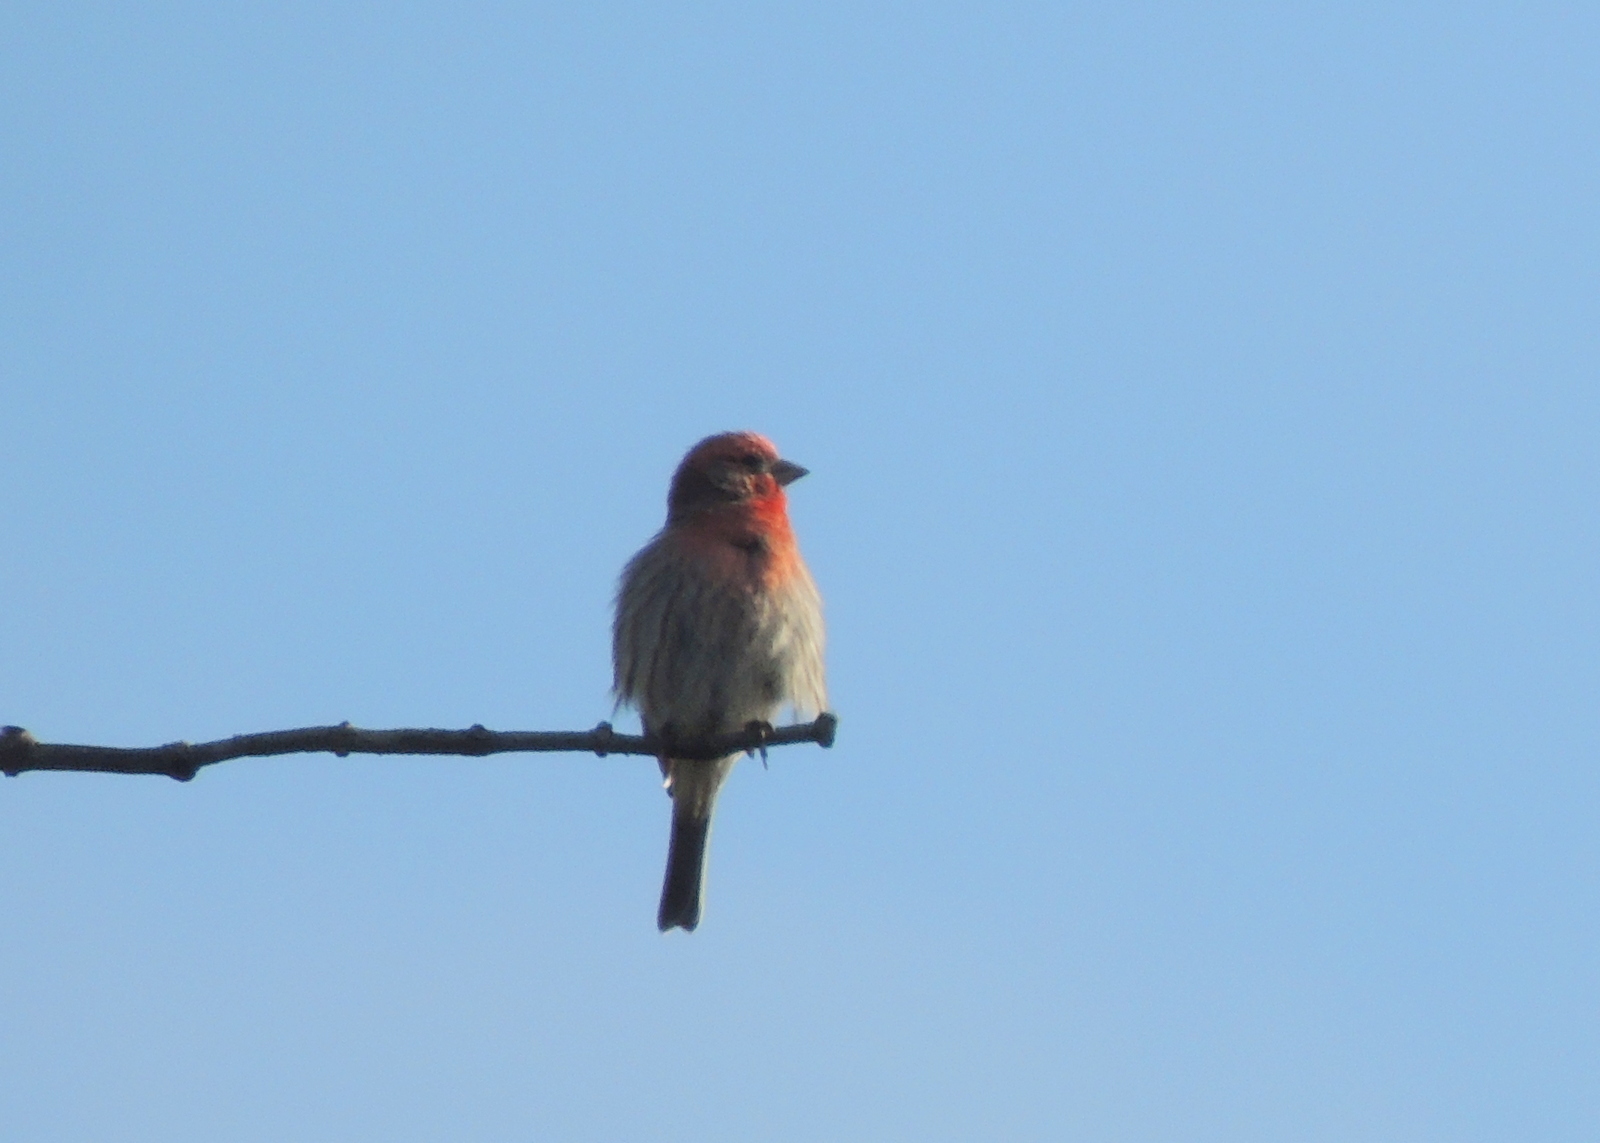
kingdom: Animalia
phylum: Chordata
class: Aves
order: Passeriformes
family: Fringillidae
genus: Haemorhous
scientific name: Haemorhous mexicanus
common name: House finch
